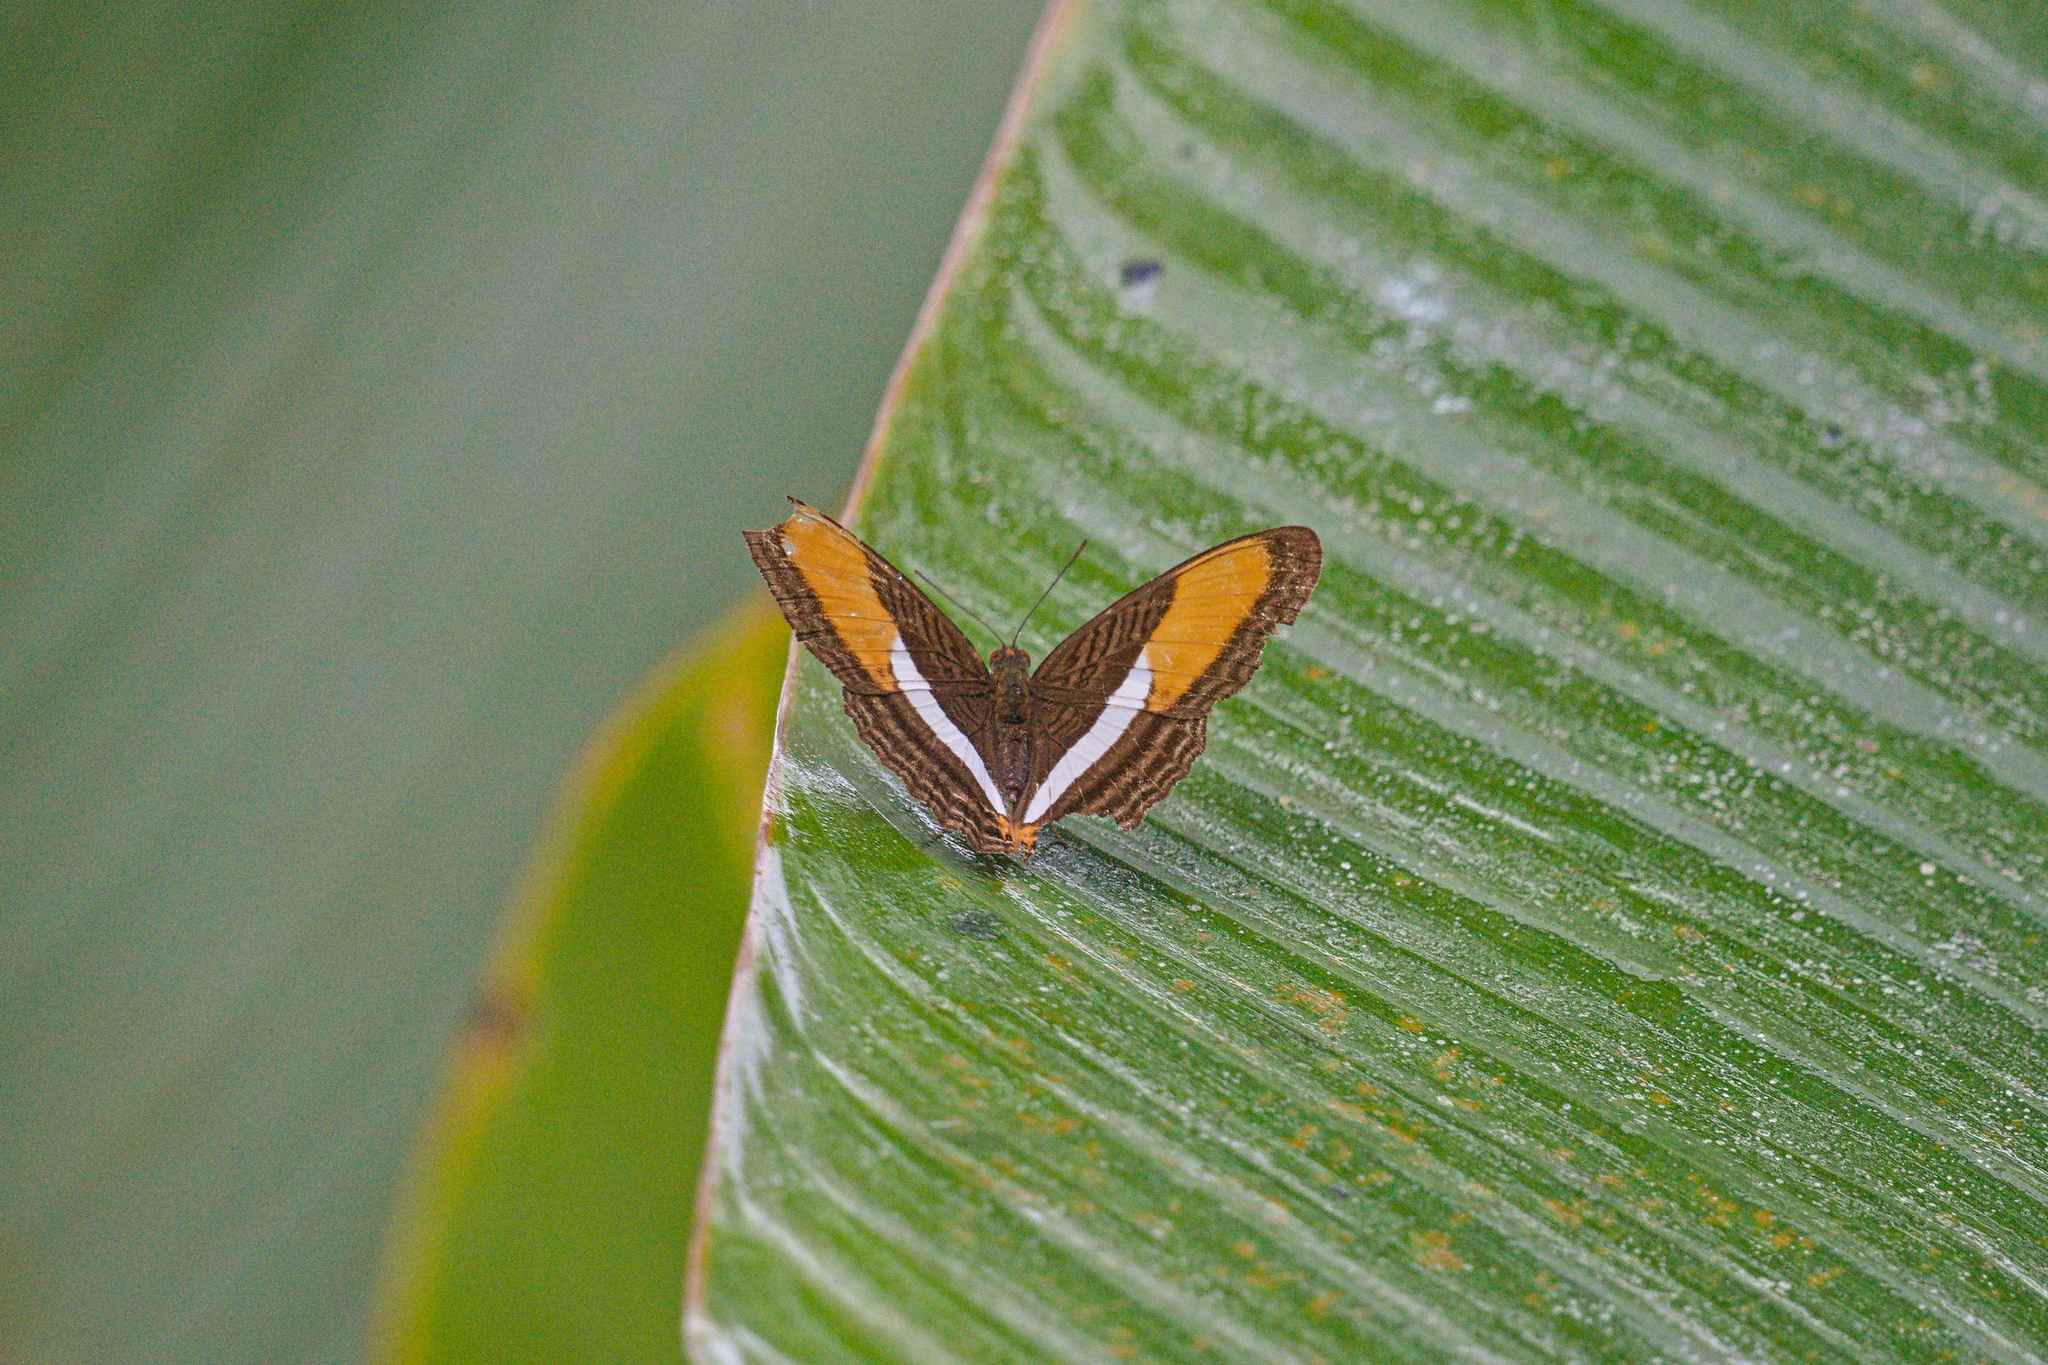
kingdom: Animalia
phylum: Arthropoda
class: Insecta
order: Lepidoptera
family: Nymphalidae
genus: Limenitis
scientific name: Limenitis cytherea
